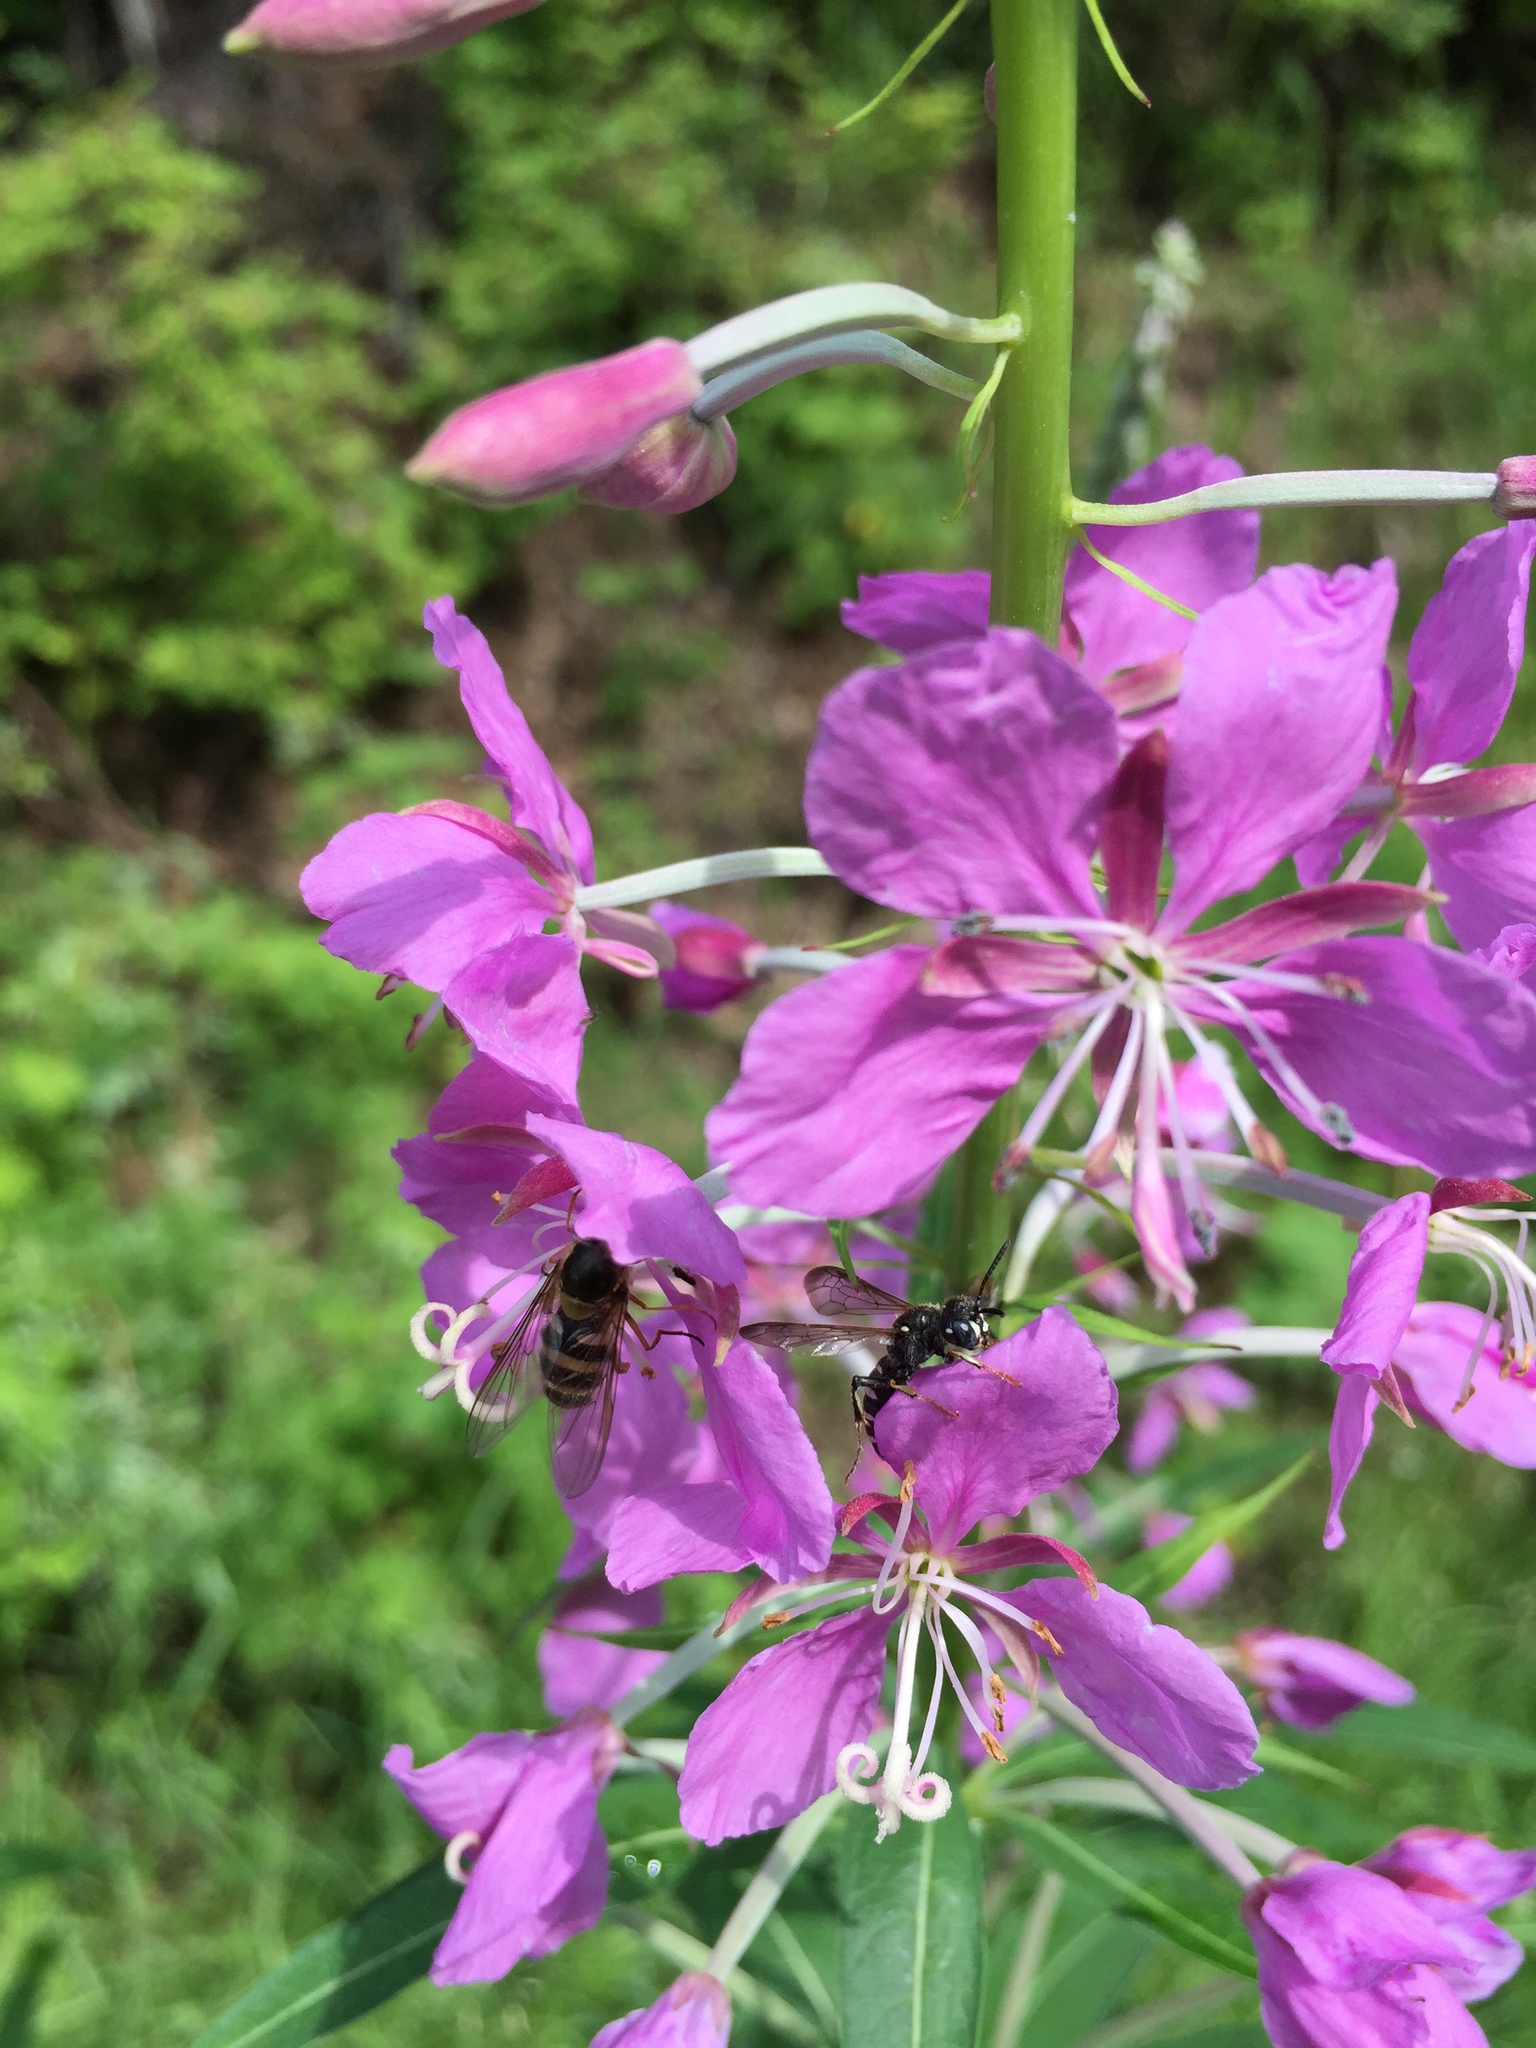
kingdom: Animalia
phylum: Arthropoda
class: Insecta
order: Hymenoptera
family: Crabronidae
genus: Cerceris
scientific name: Cerceris nigrescens
